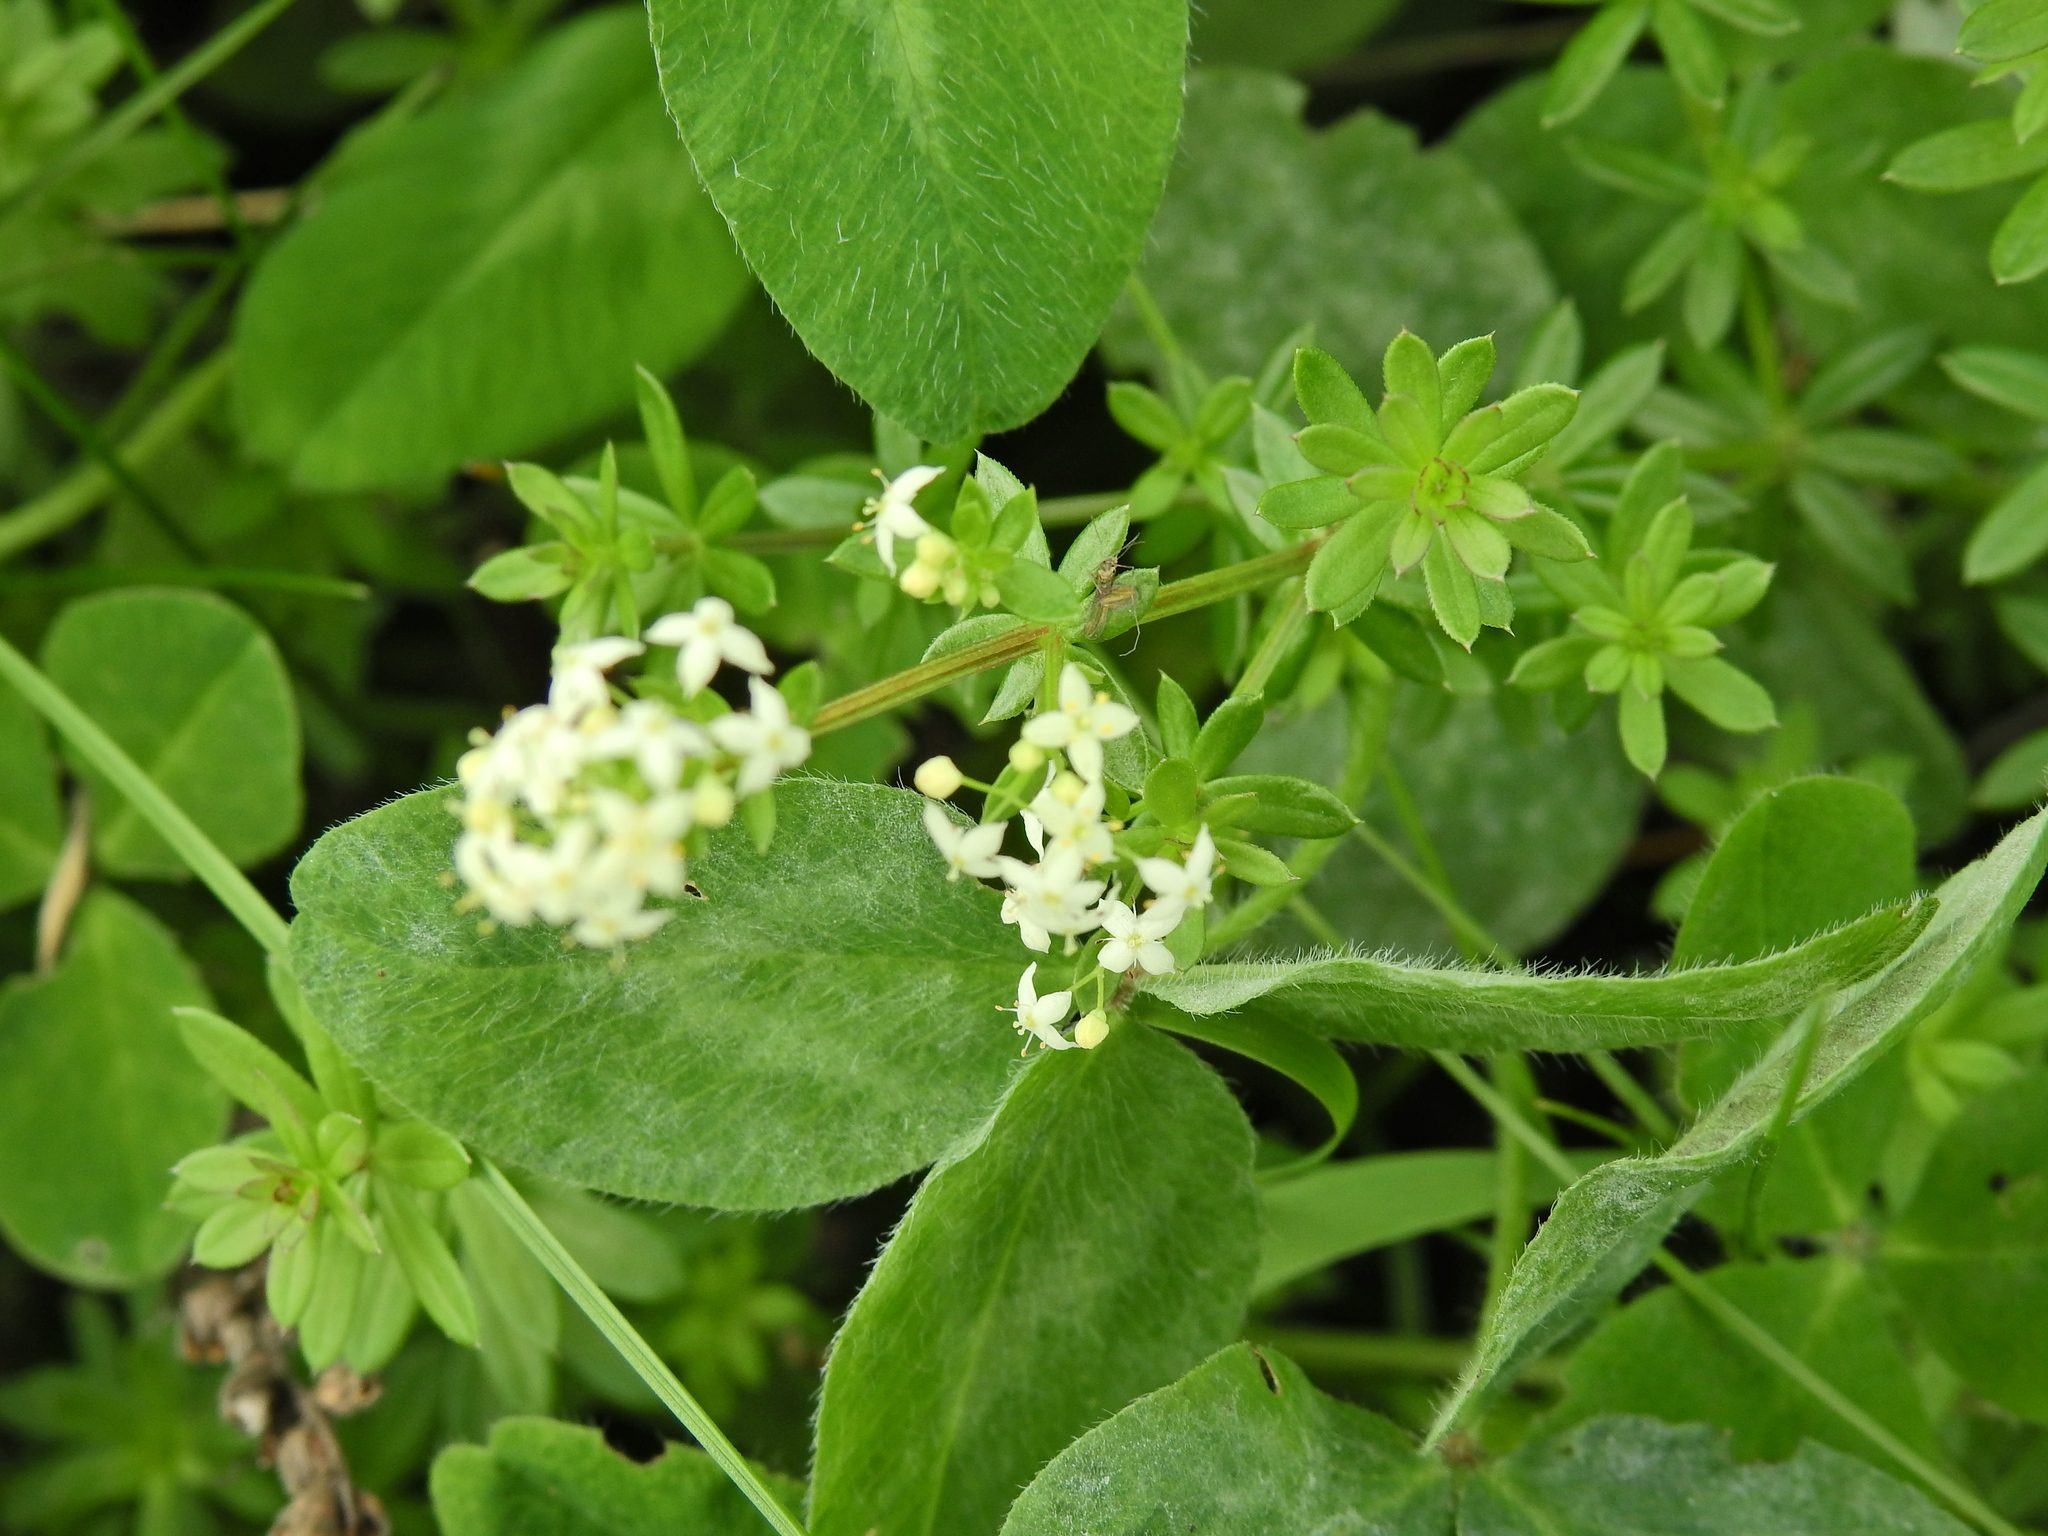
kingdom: Plantae
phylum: Tracheophyta
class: Magnoliopsida
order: Gentianales
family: Rubiaceae
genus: Galium
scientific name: Galium album
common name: White bedstraw
